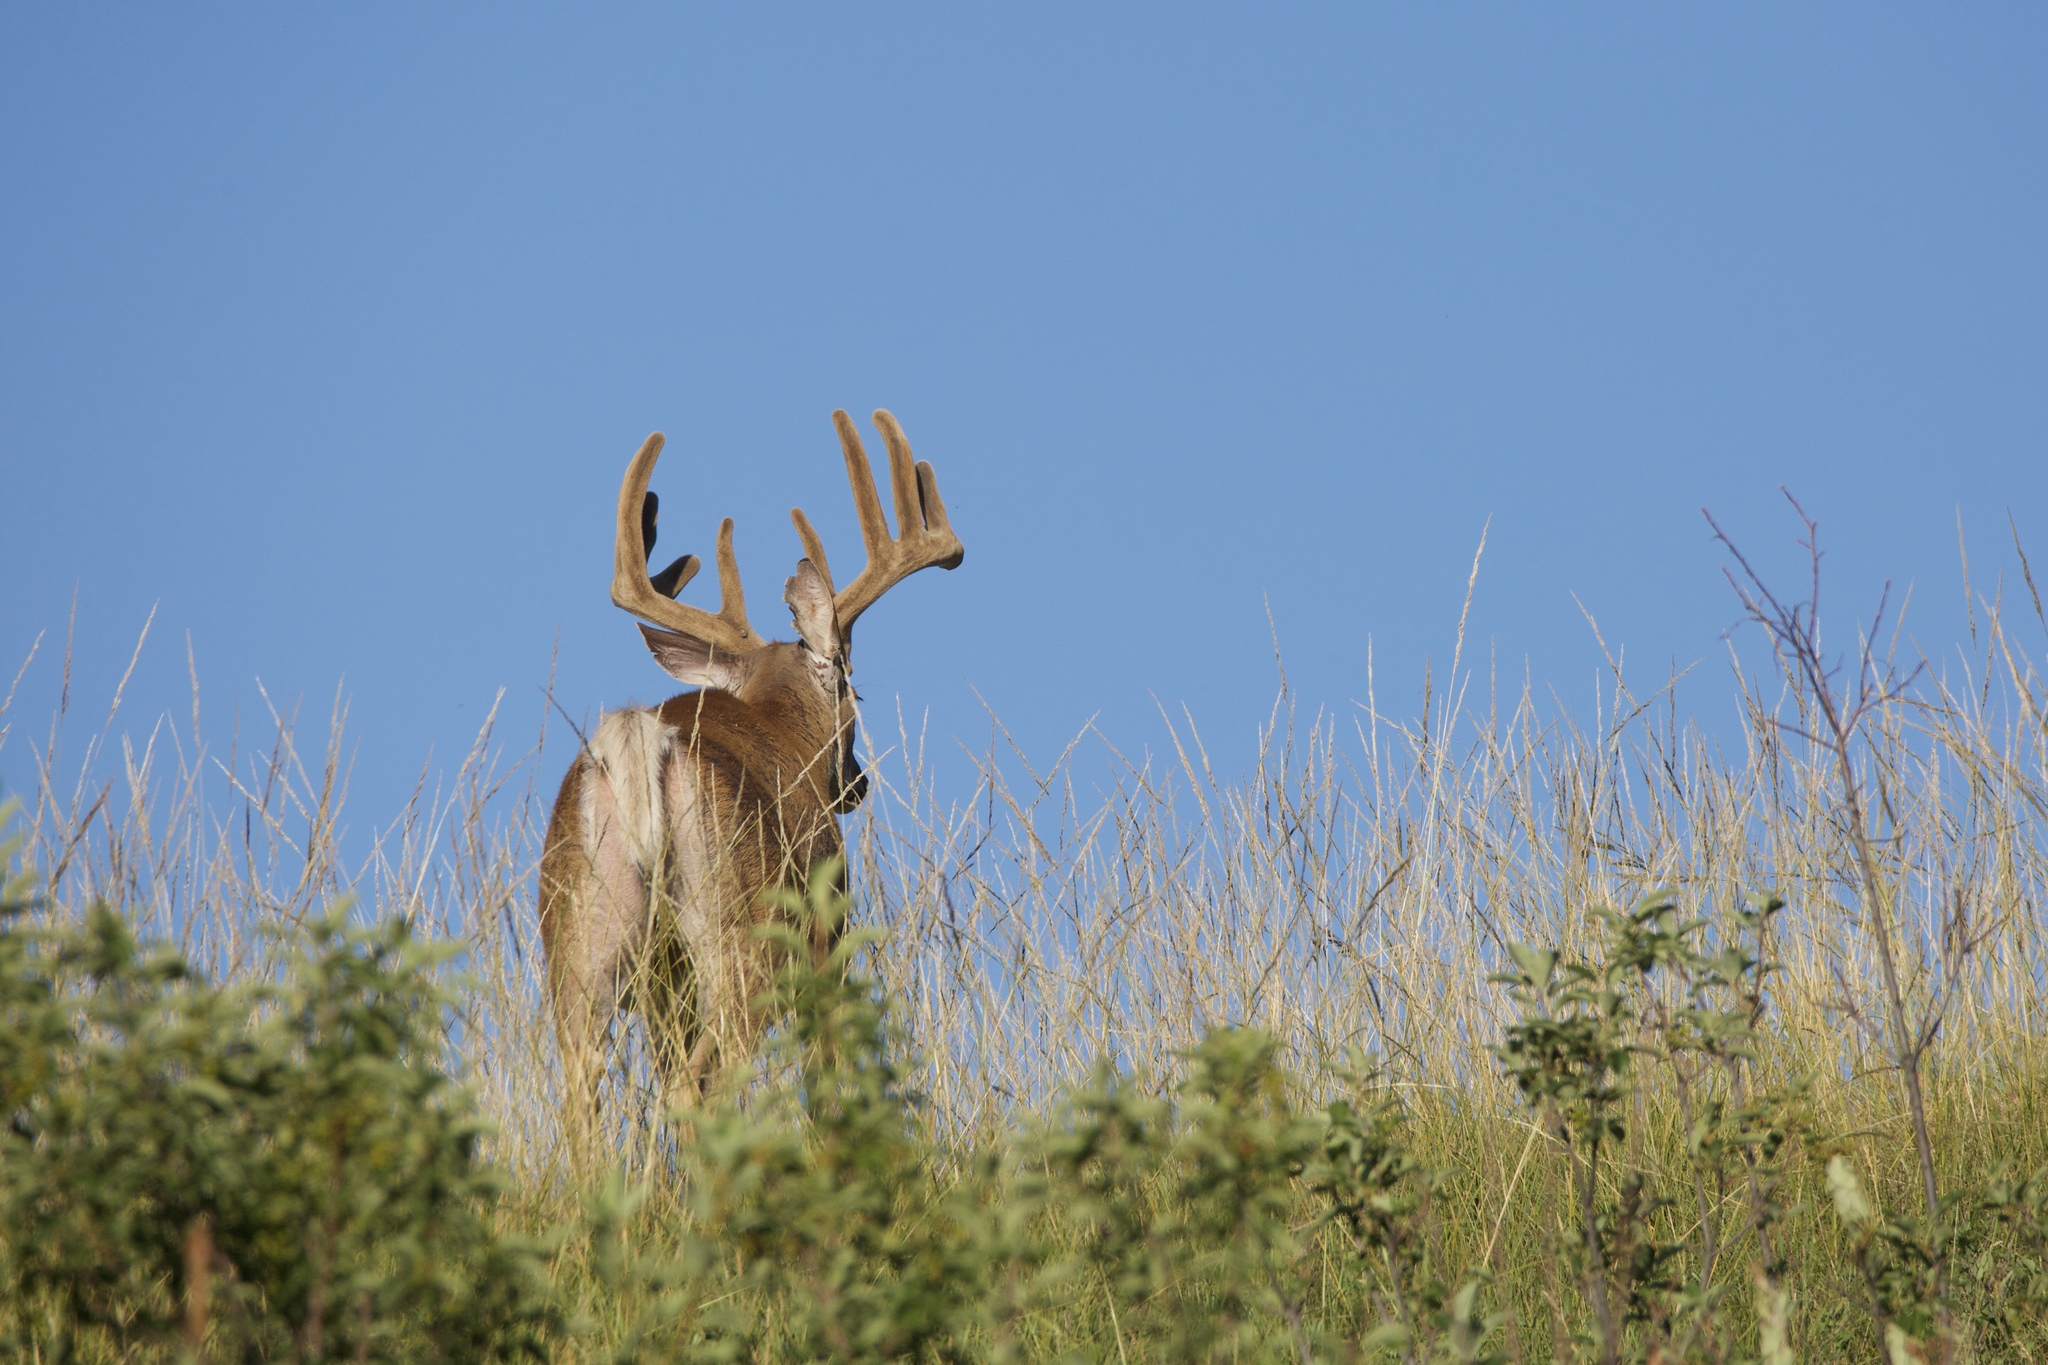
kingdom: Animalia
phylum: Chordata
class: Mammalia
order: Artiodactyla
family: Cervidae
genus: Odocoileus
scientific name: Odocoileus virginianus
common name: White-tailed deer
